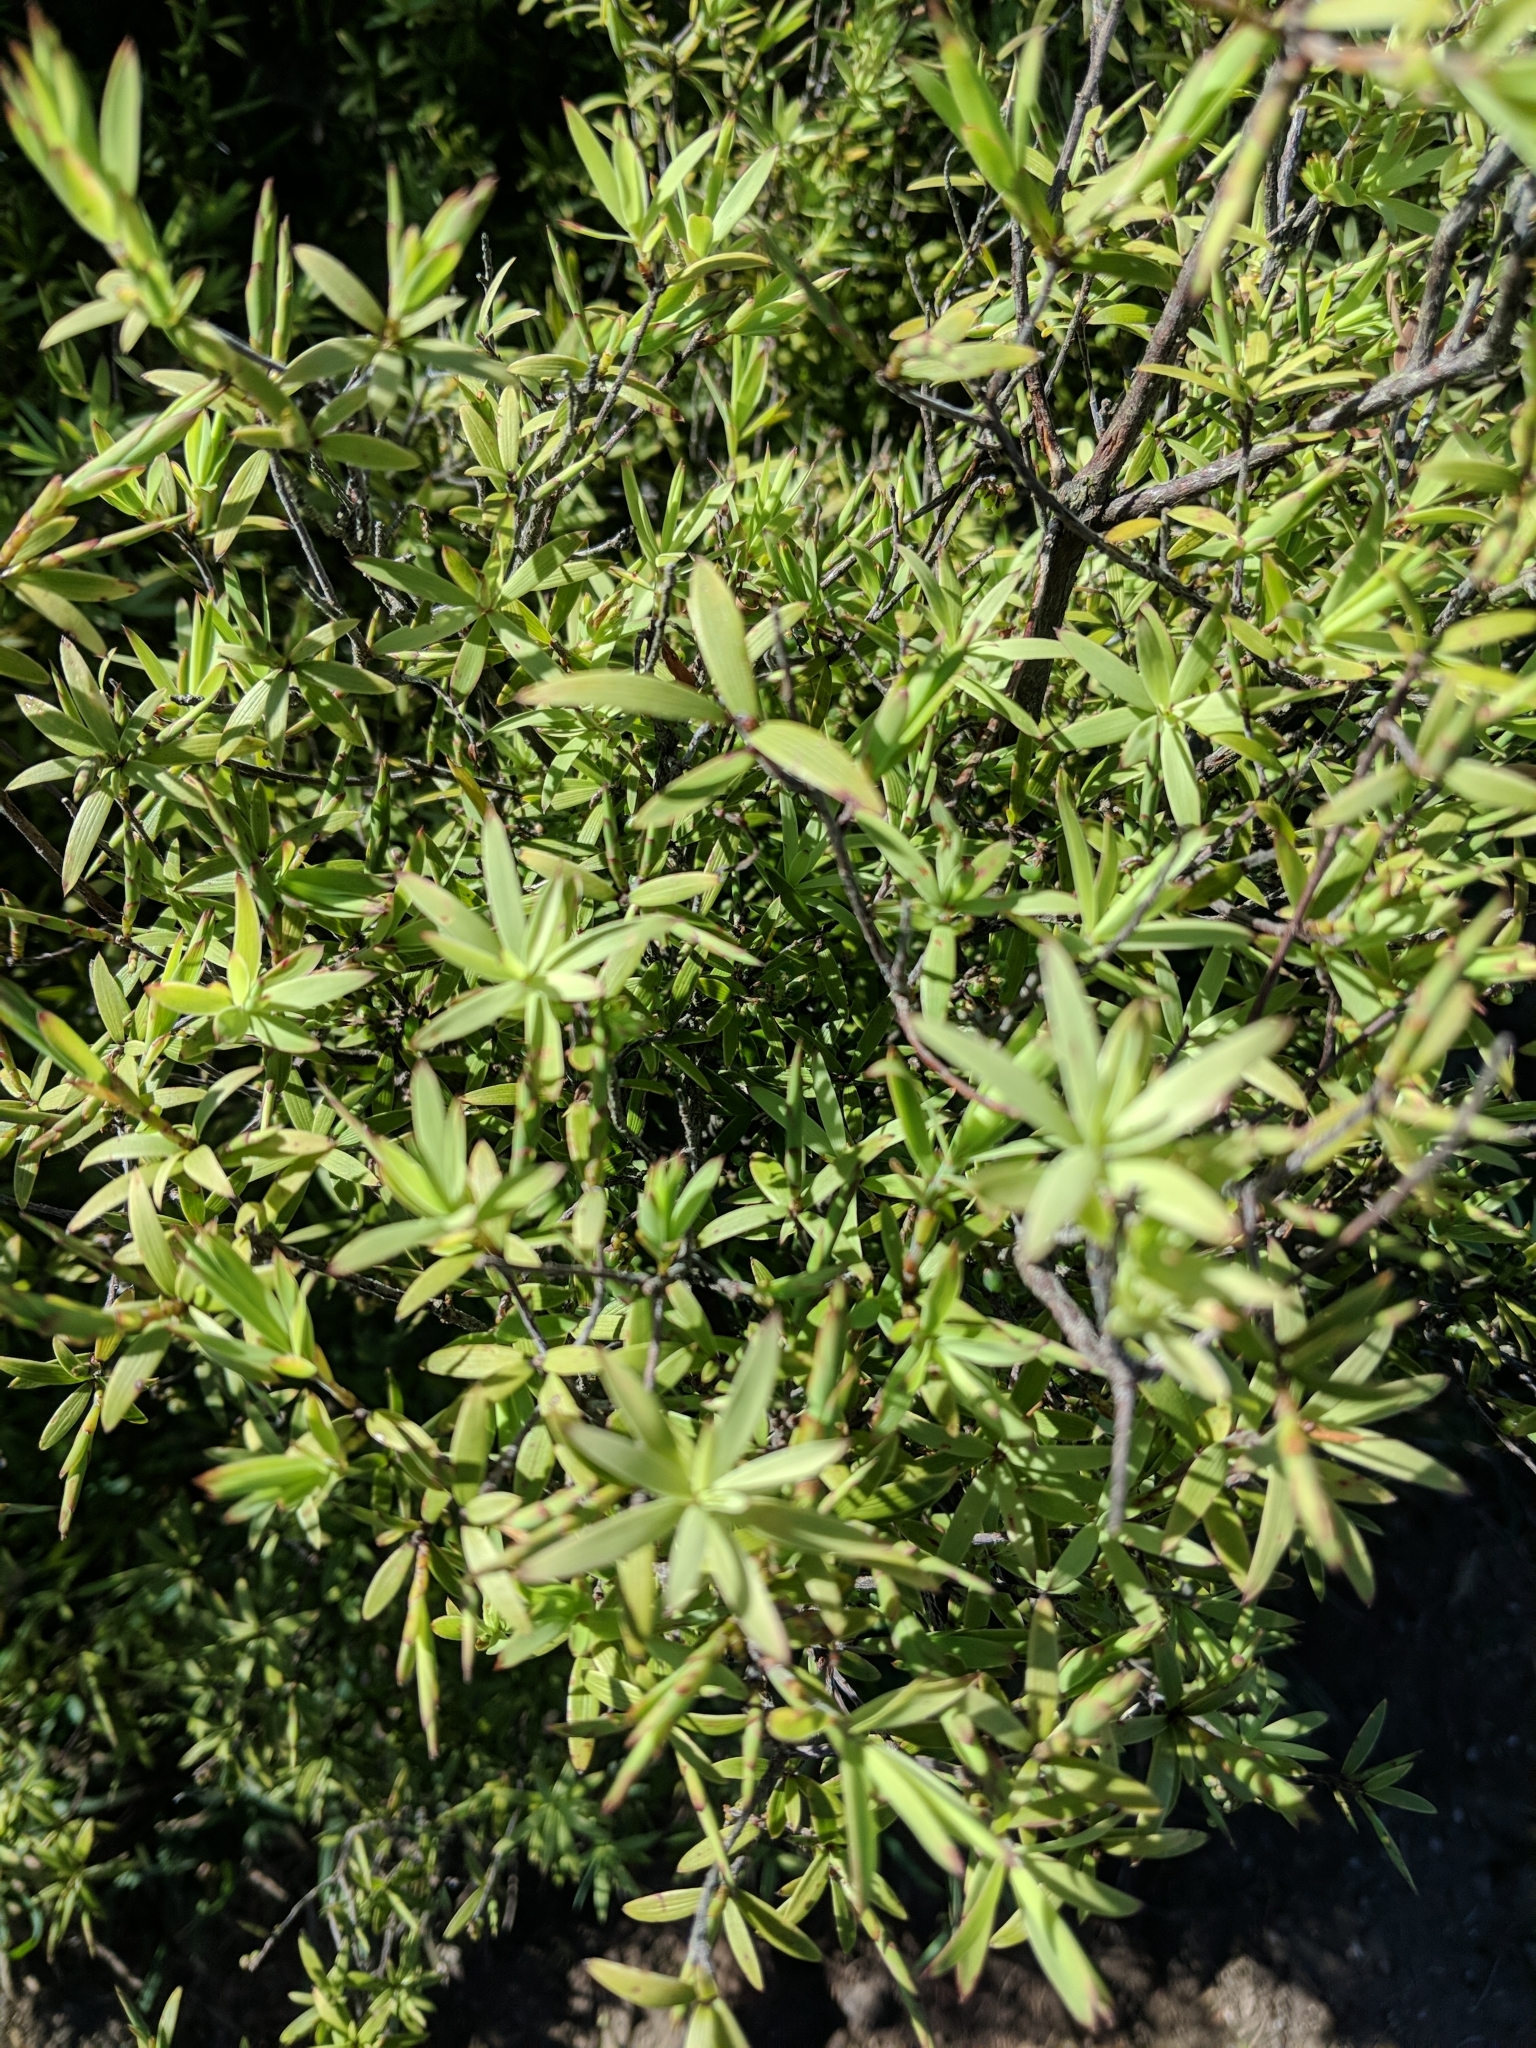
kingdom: Plantae
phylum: Tracheophyta
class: Magnoliopsida
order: Ericales
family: Ericaceae
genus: Leucopogon
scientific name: Leucopogon fasciculatus
